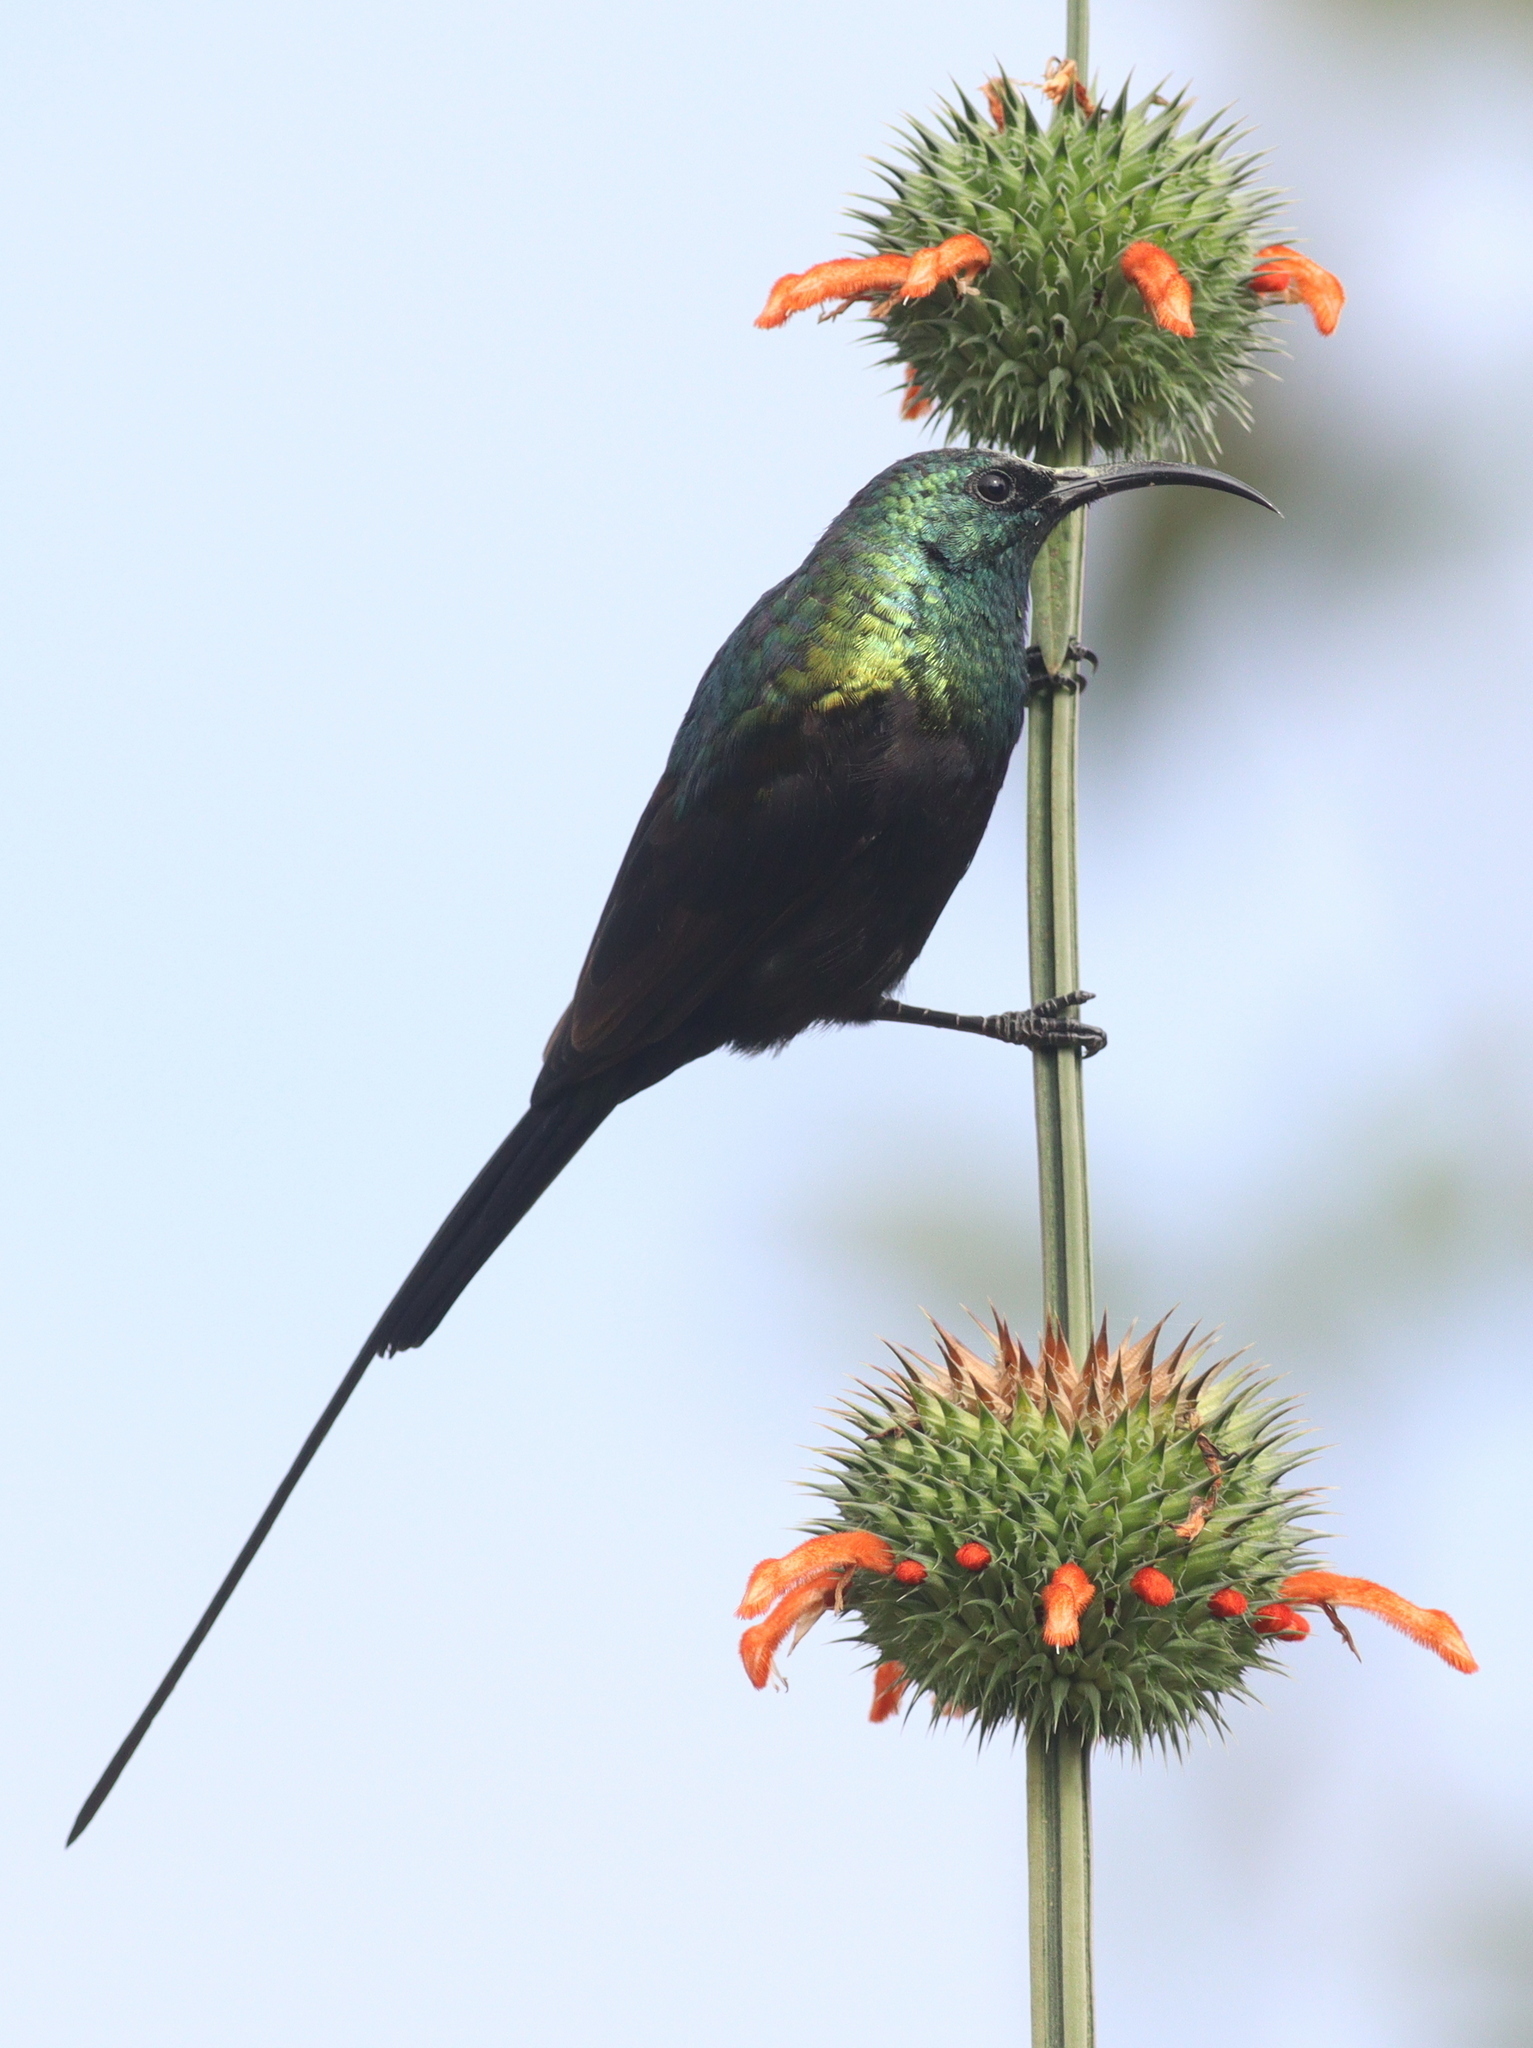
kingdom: Animalia
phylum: Chordata
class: Aves
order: Passeriformes
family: Nectariniidae
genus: Nectarinia
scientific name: Nectarinia kilimensis
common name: Bronzy sunbird
